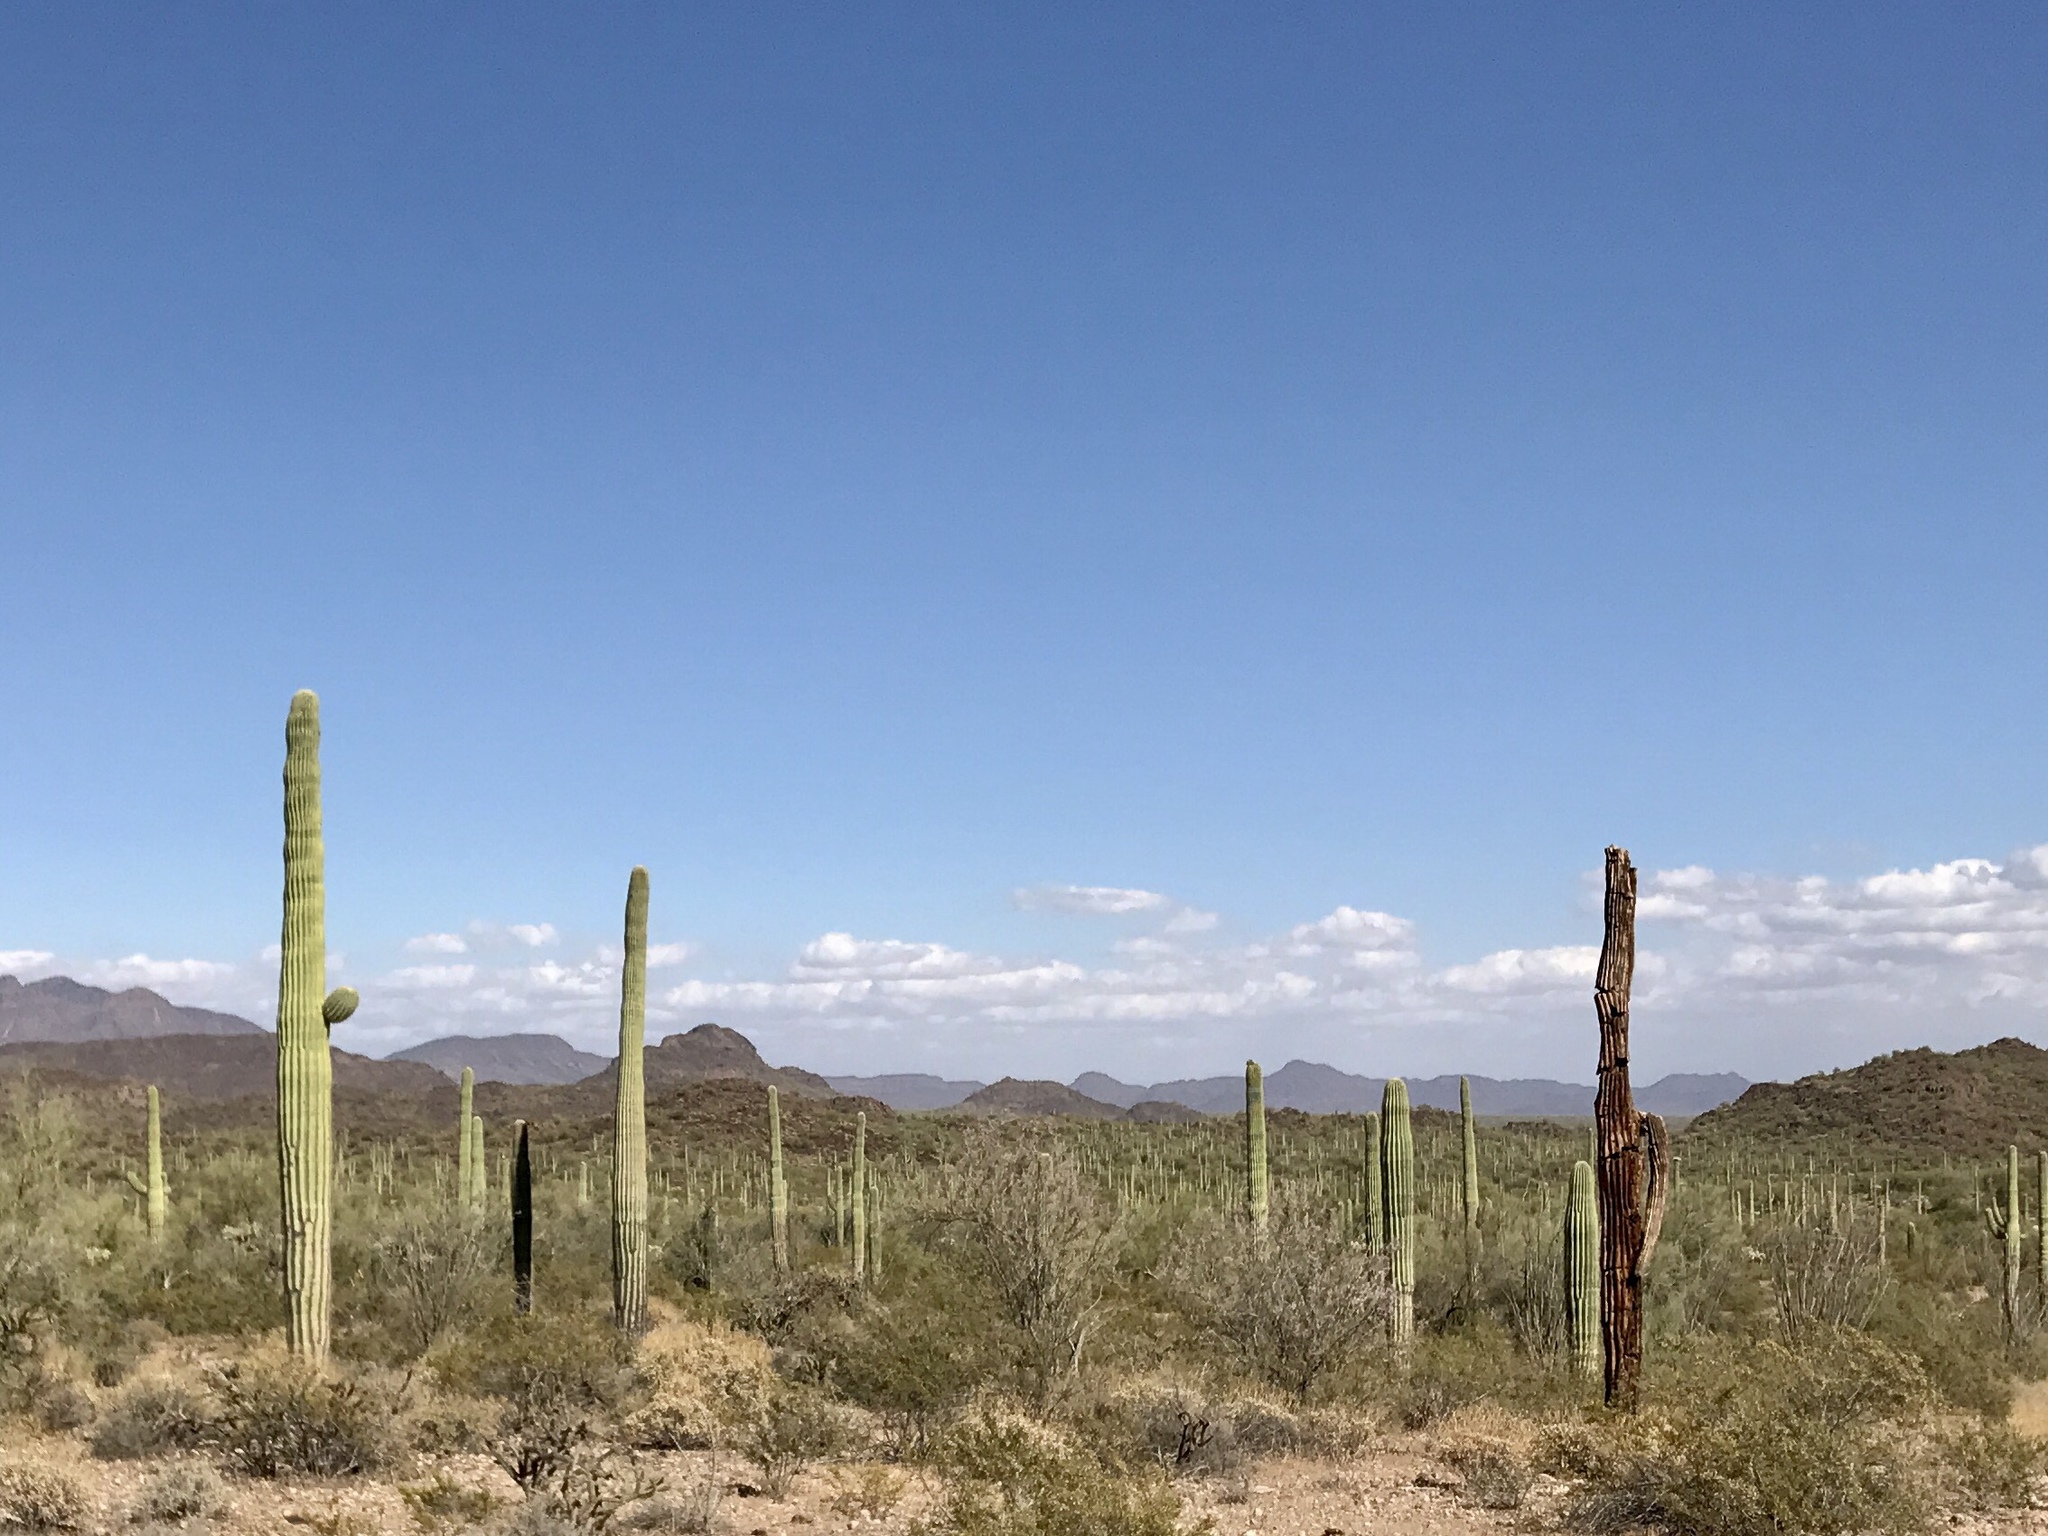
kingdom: Plantae
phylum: Tracheophyta
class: Magnoliopsida
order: Caryophyllales
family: Cactaceae
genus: Carnegiea
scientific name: Carnegiea gigantea
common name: Saguaro
